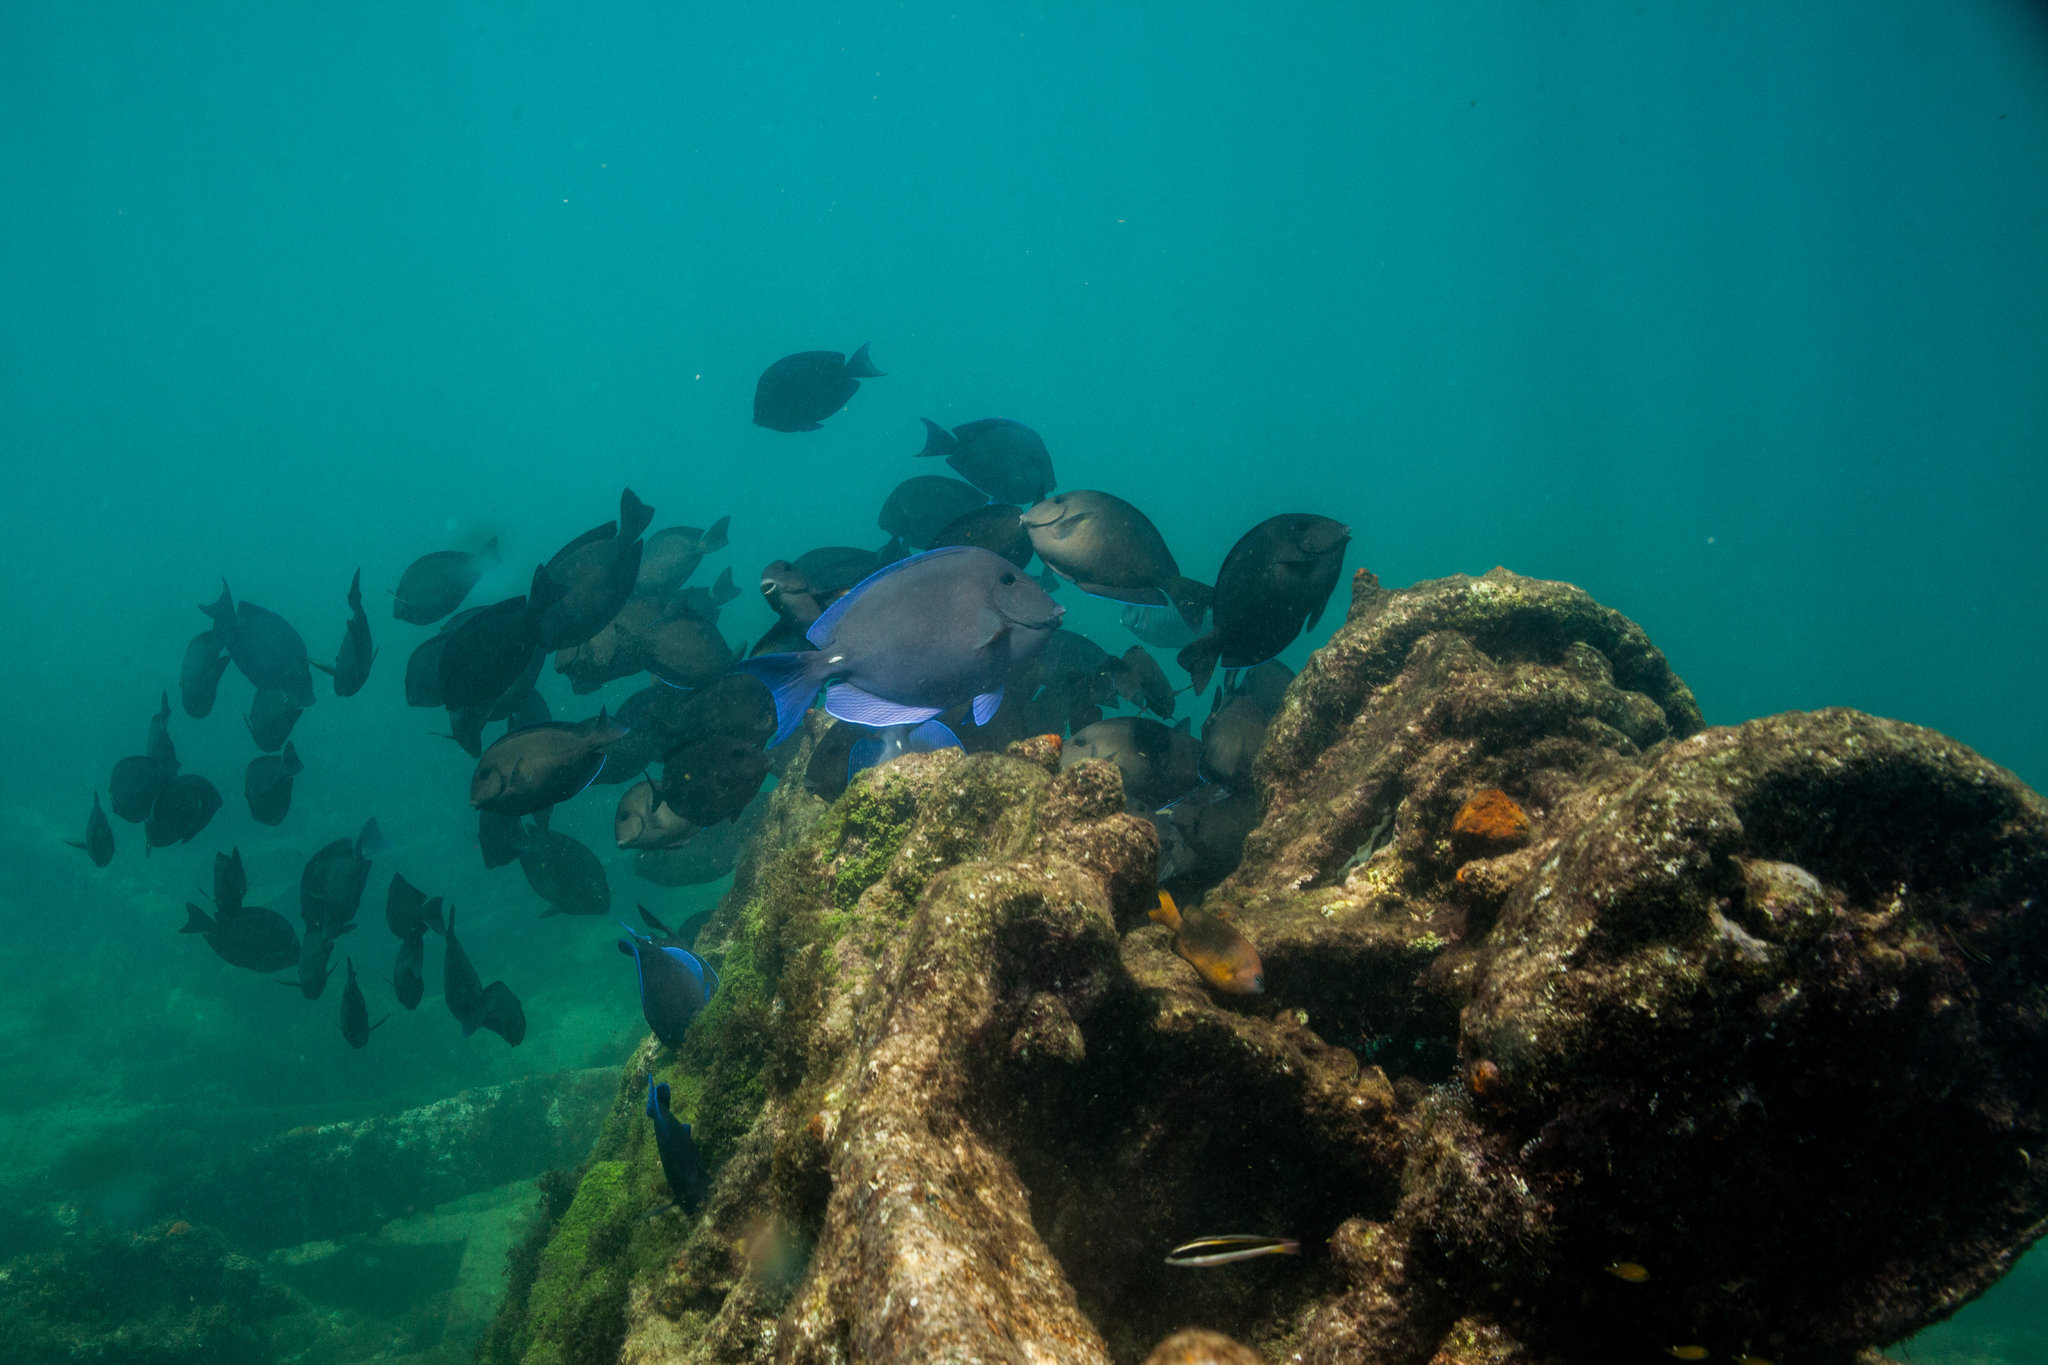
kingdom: Animalia
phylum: Chordata
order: Perciformes
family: Acanthuridae
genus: Acanthurus
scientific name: Acanthurus coeruleus
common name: Blue tang
